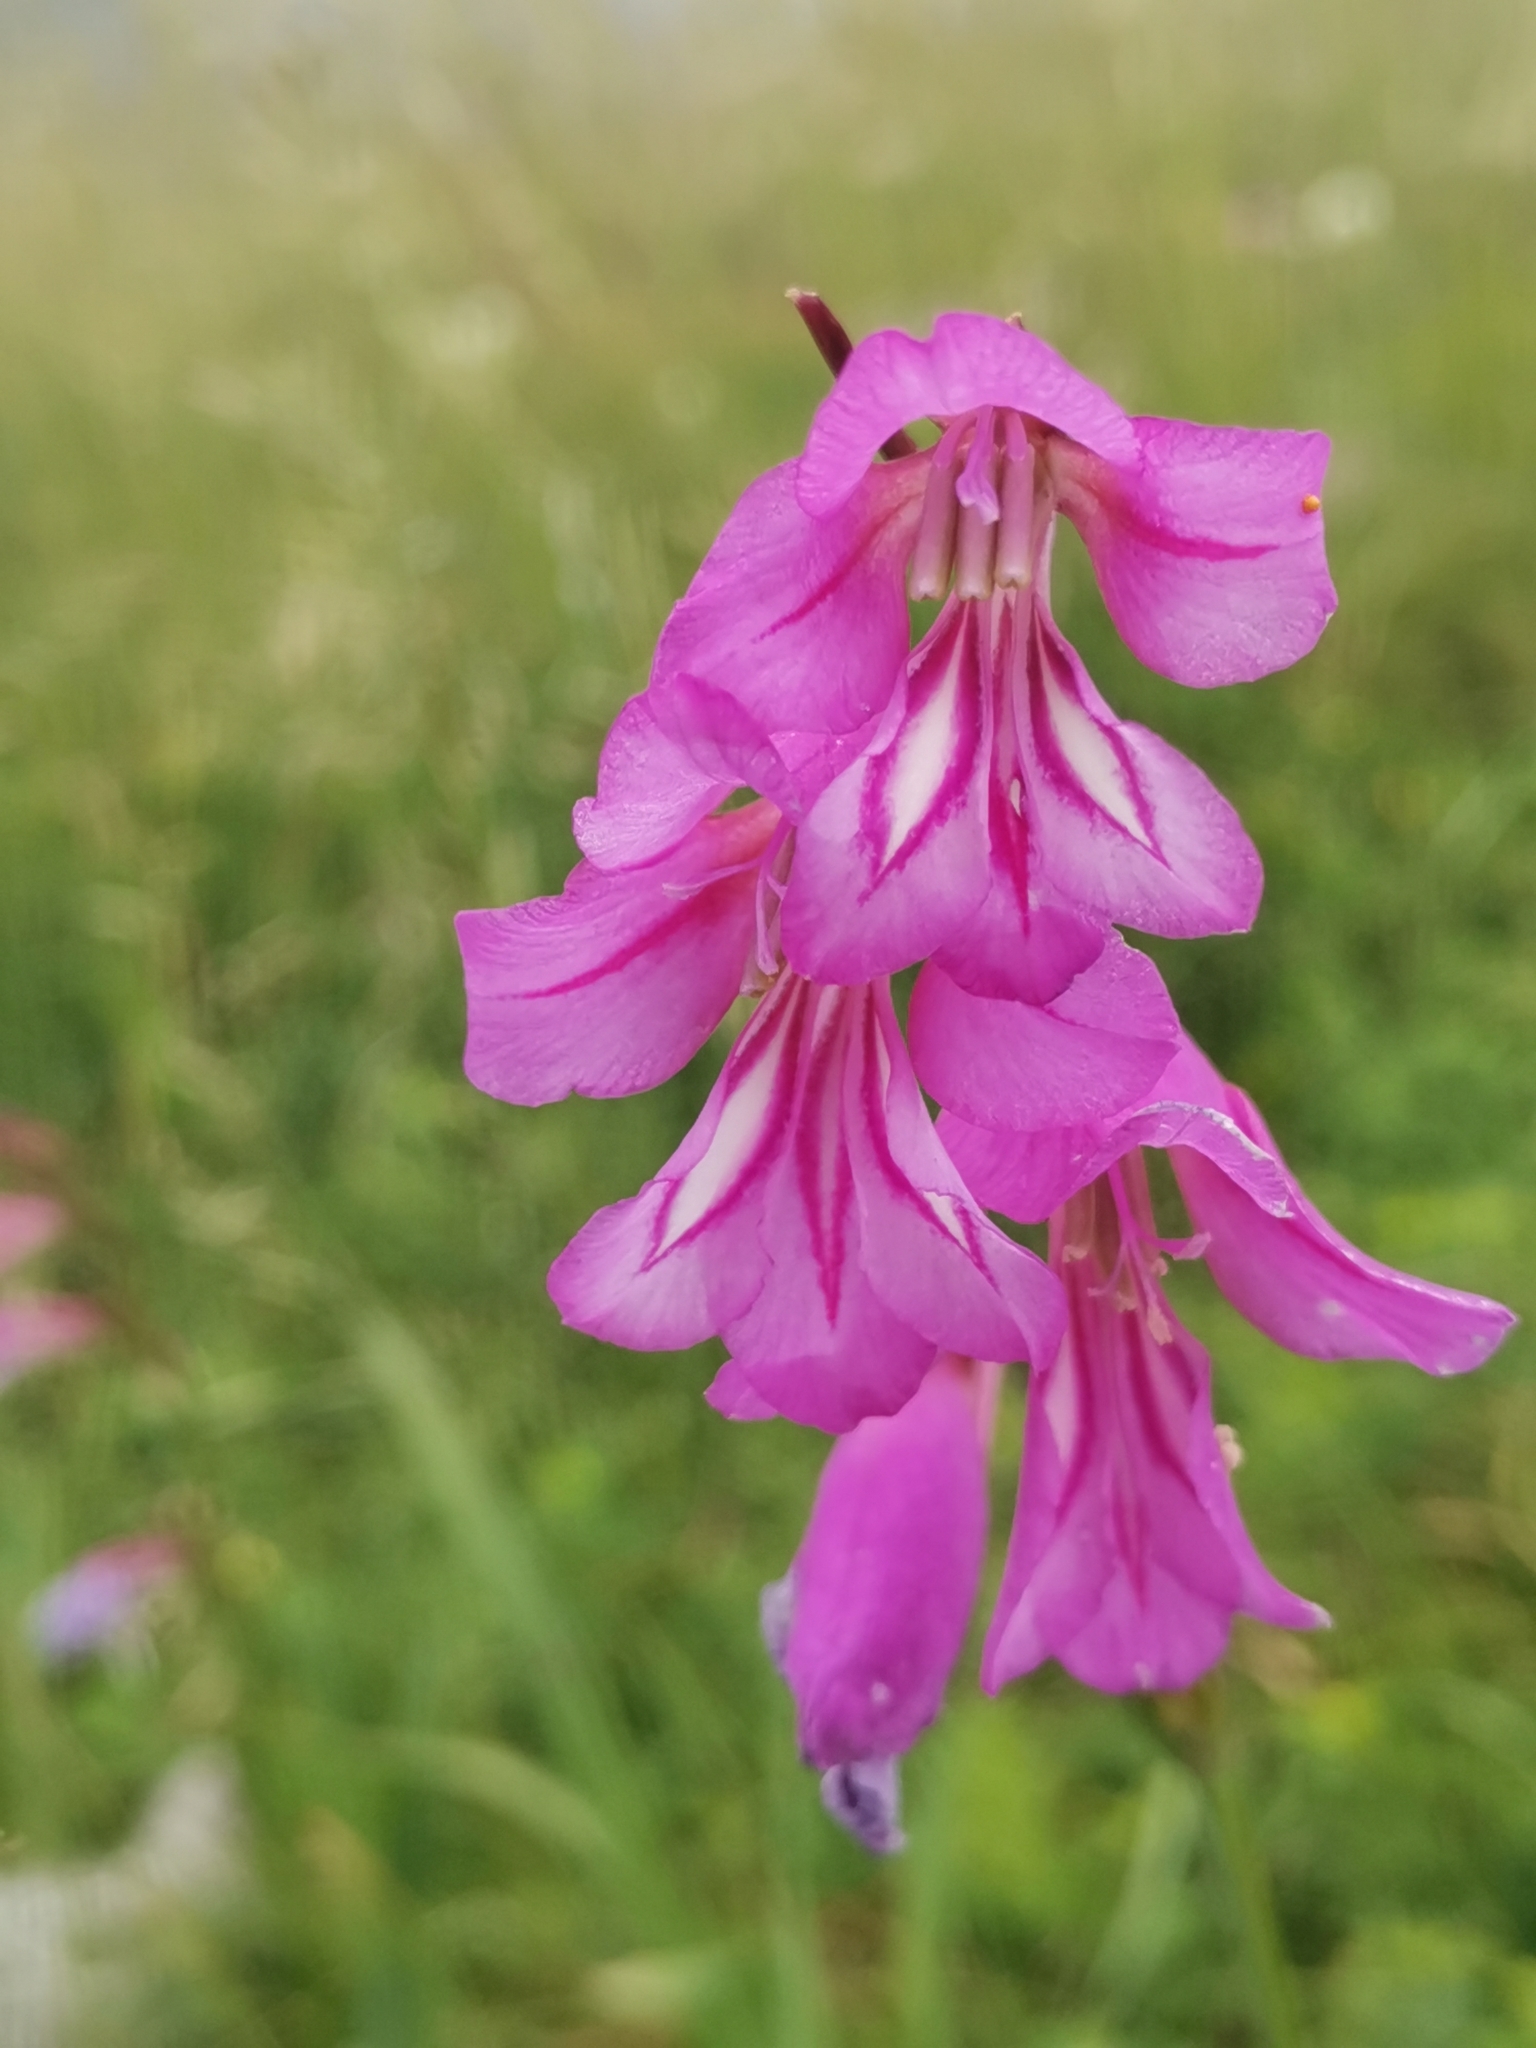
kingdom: Plantae
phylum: Tracheophyta
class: Liliopsida
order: Asparagales
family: Iridaceae
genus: Gladiolus
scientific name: Gladiolus illyricus
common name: Wild gladiolus
